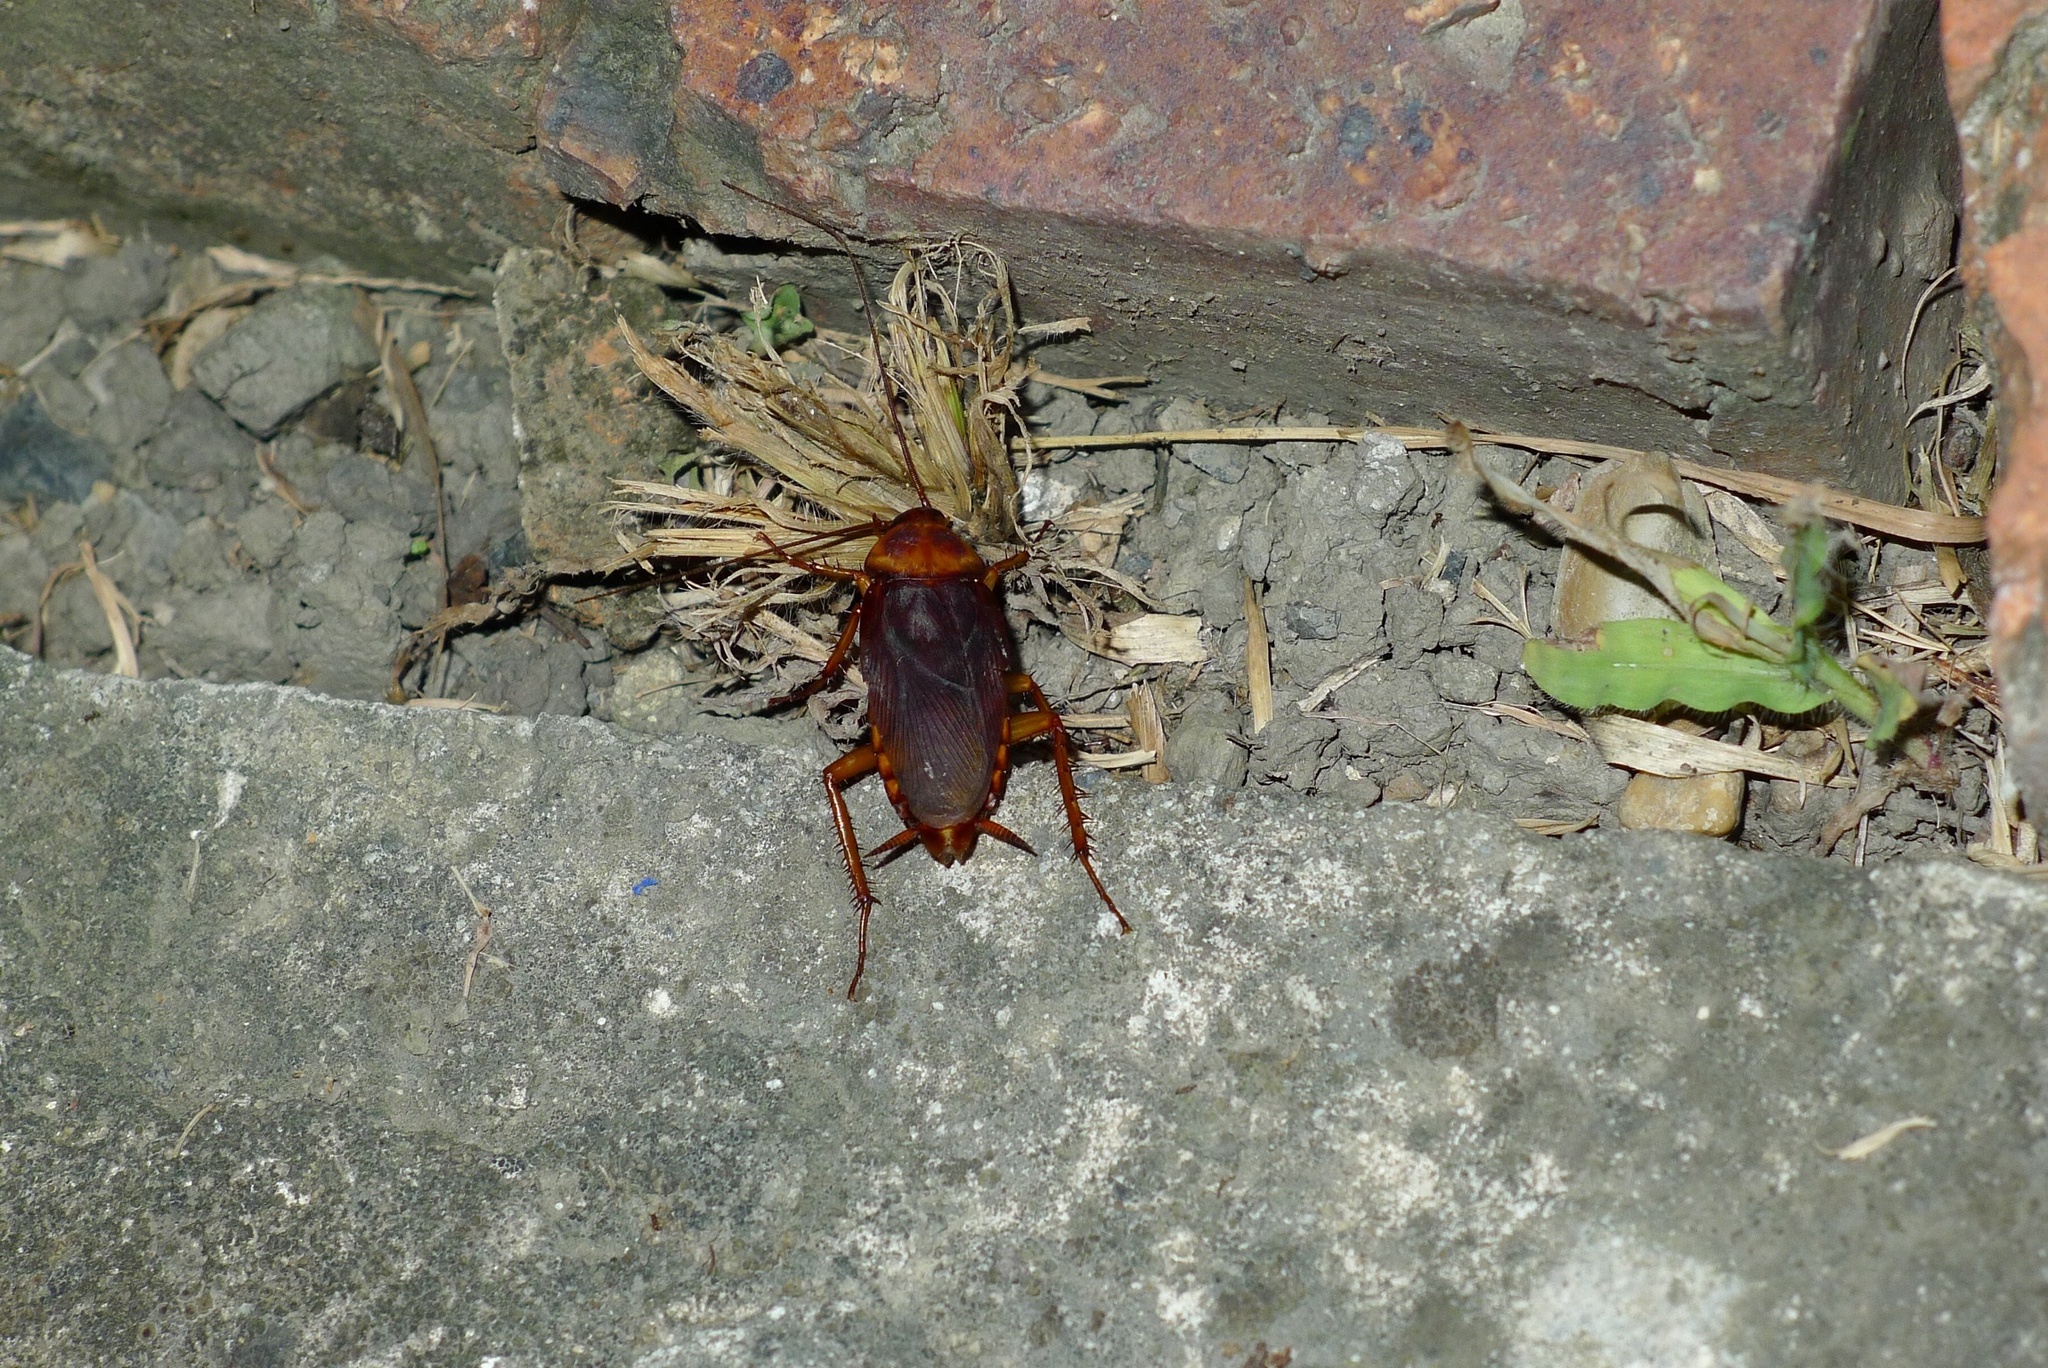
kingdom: Animalia
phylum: Arthropoda
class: Insecta
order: Blattodea
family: Blattidae
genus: Periplaneta
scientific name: Periplaneta americana
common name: American cockroach
